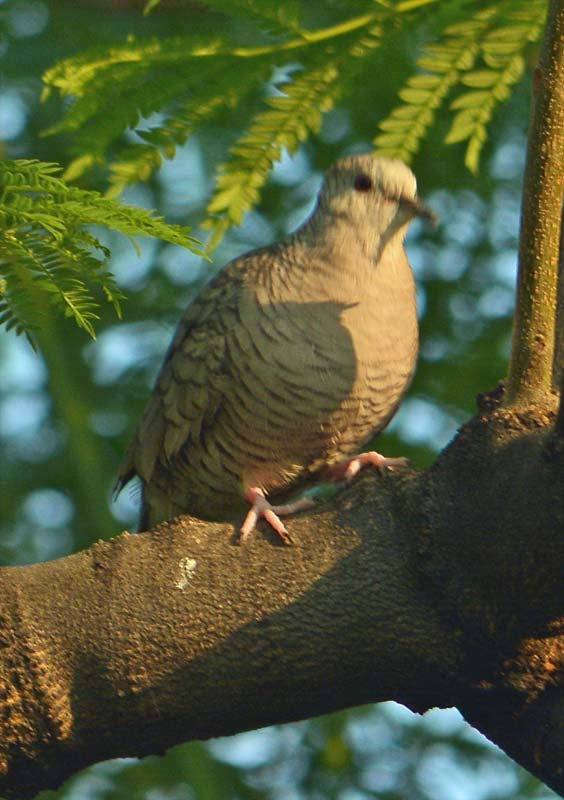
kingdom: Animalia
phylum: Chordata
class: Aves
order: Columbiformes
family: Columbidae
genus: Columbina
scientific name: Columbina inca
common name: Inca dove
